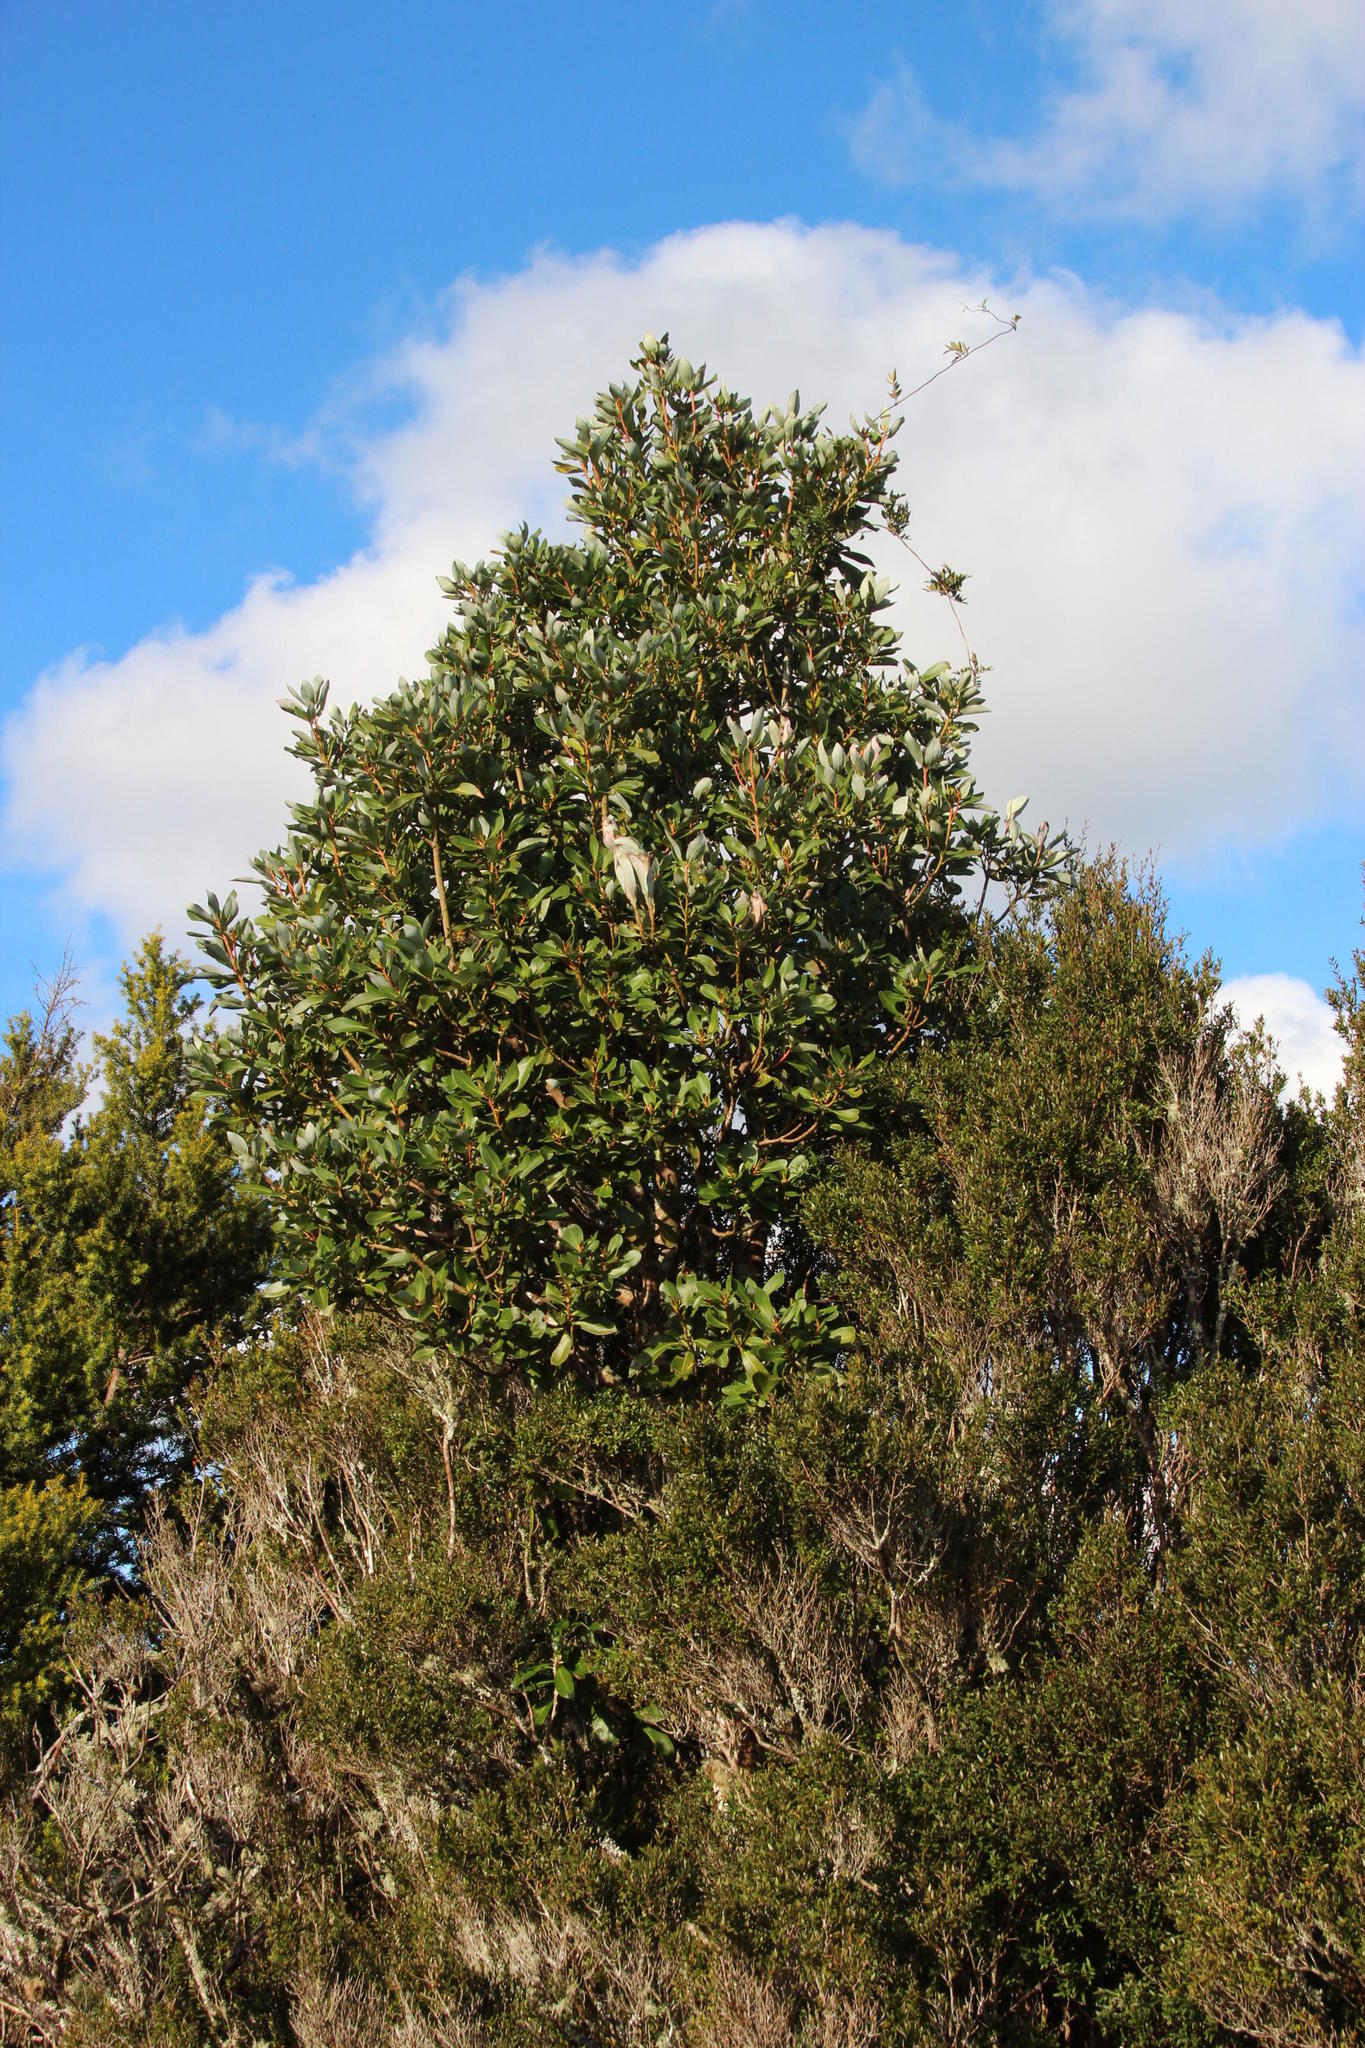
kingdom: Plantae
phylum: Tracheophyta
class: Magnoliopsida
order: Canellales
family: Winteraceae
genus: Drimys
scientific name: Drimys winteri
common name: Winter's-bark
